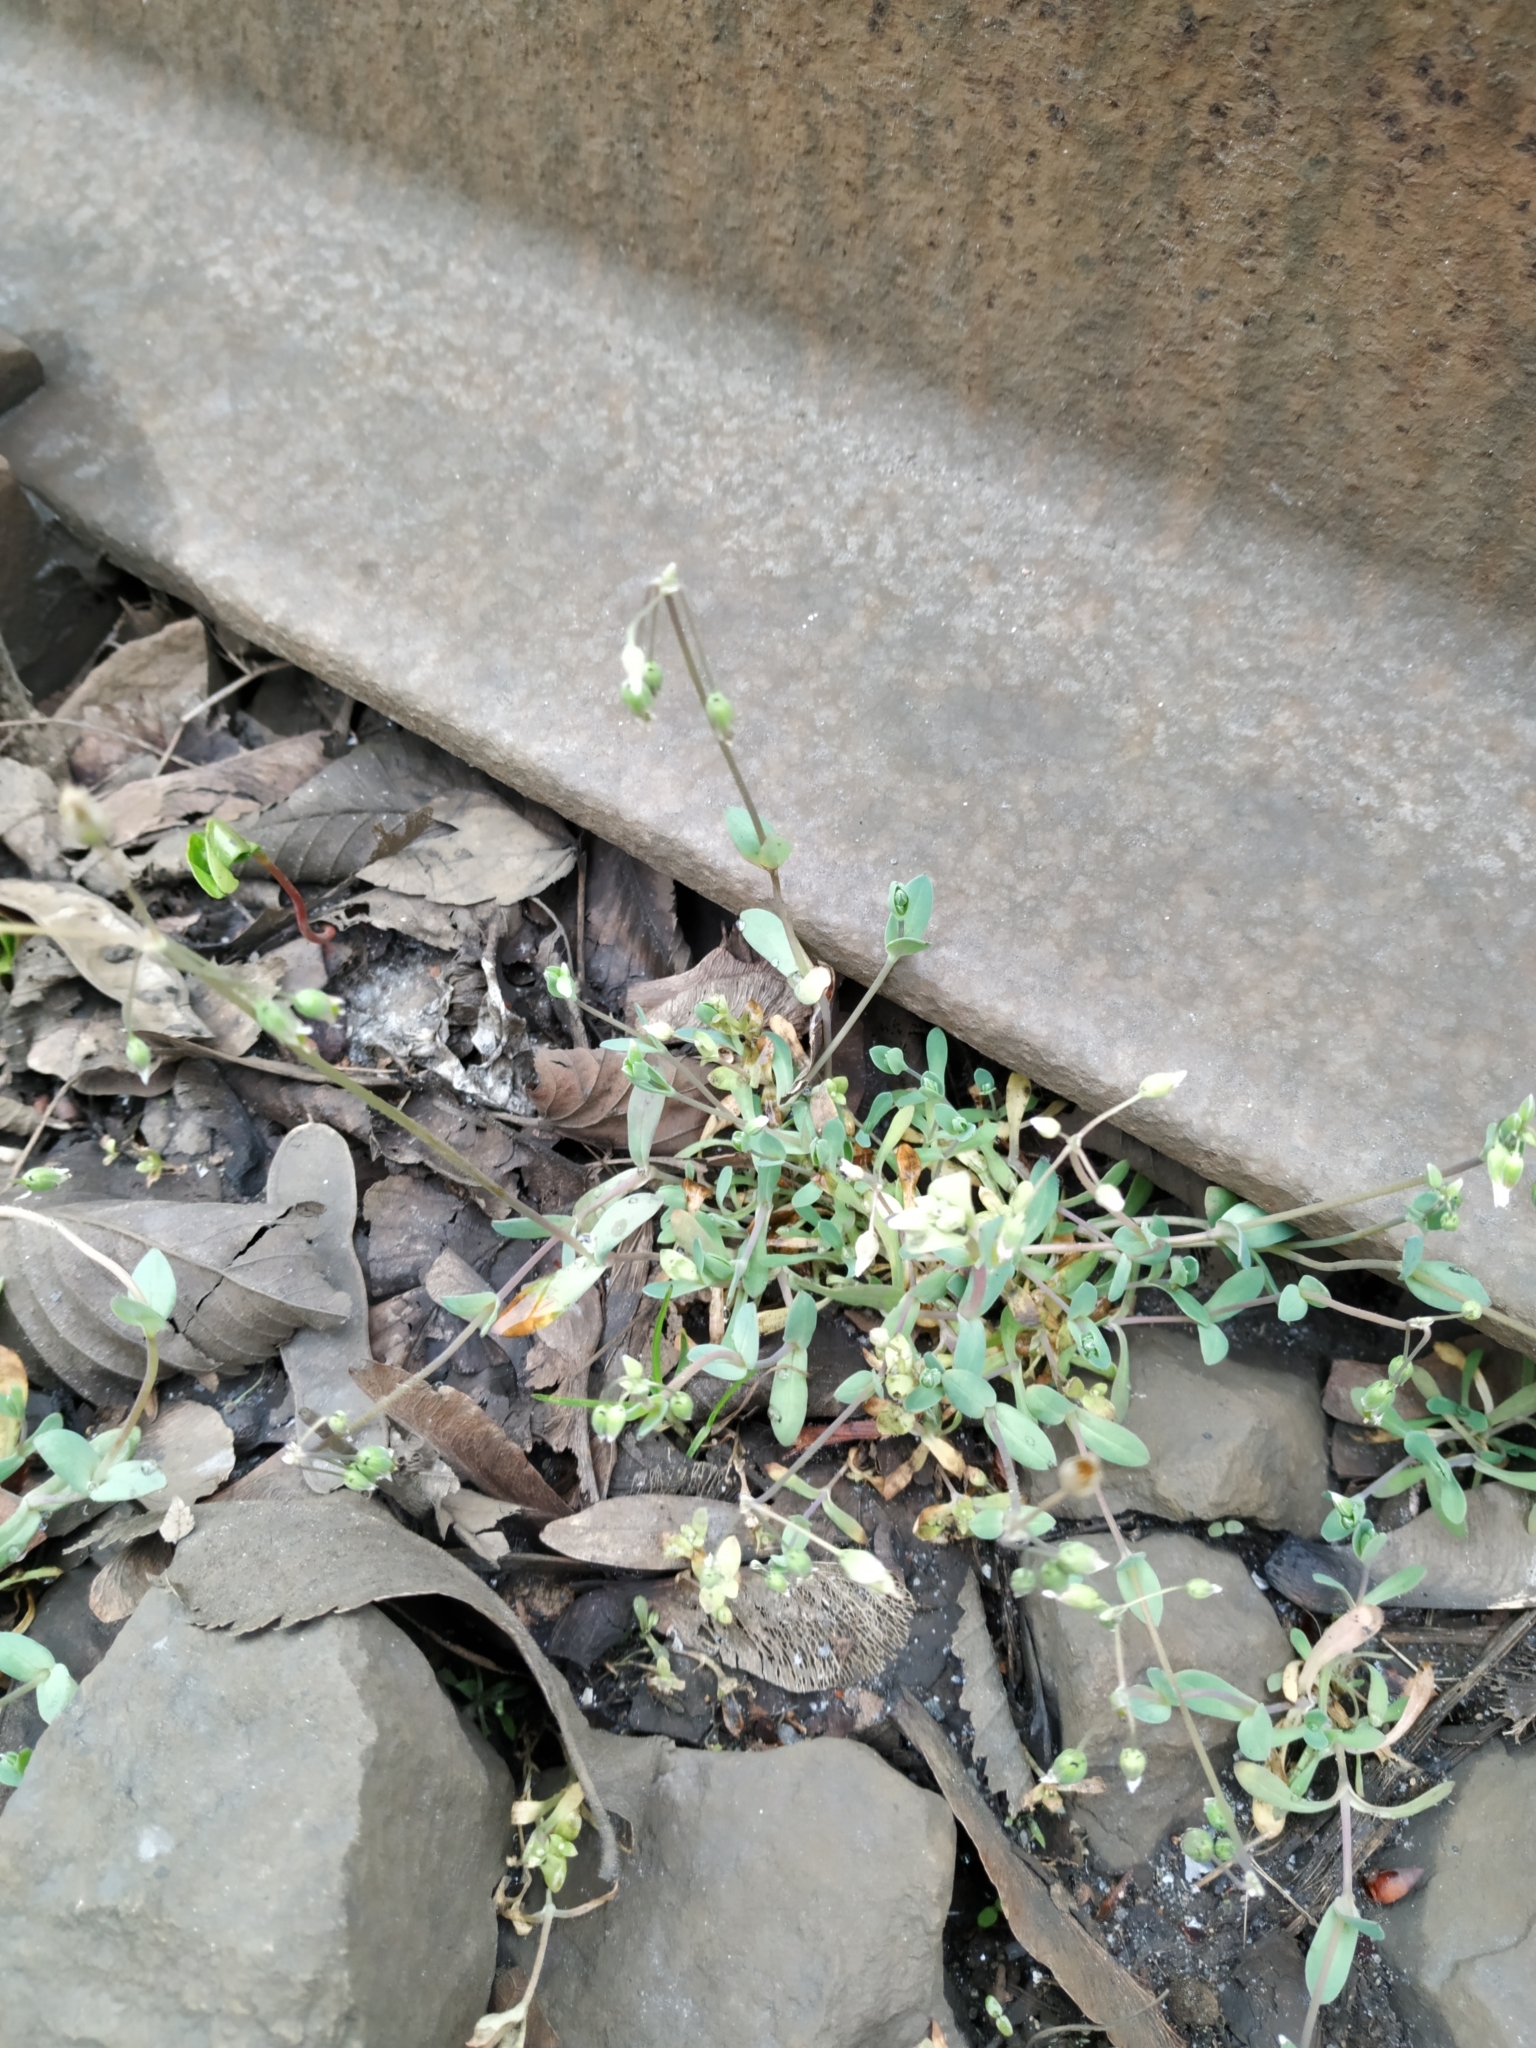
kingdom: Plantae
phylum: Tracheophyta
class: Magnoliopsida
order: Caryophyllales
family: Caryophyllaceae
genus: Holosteum
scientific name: Holosteum umbellatum
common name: Jagged chickweed
